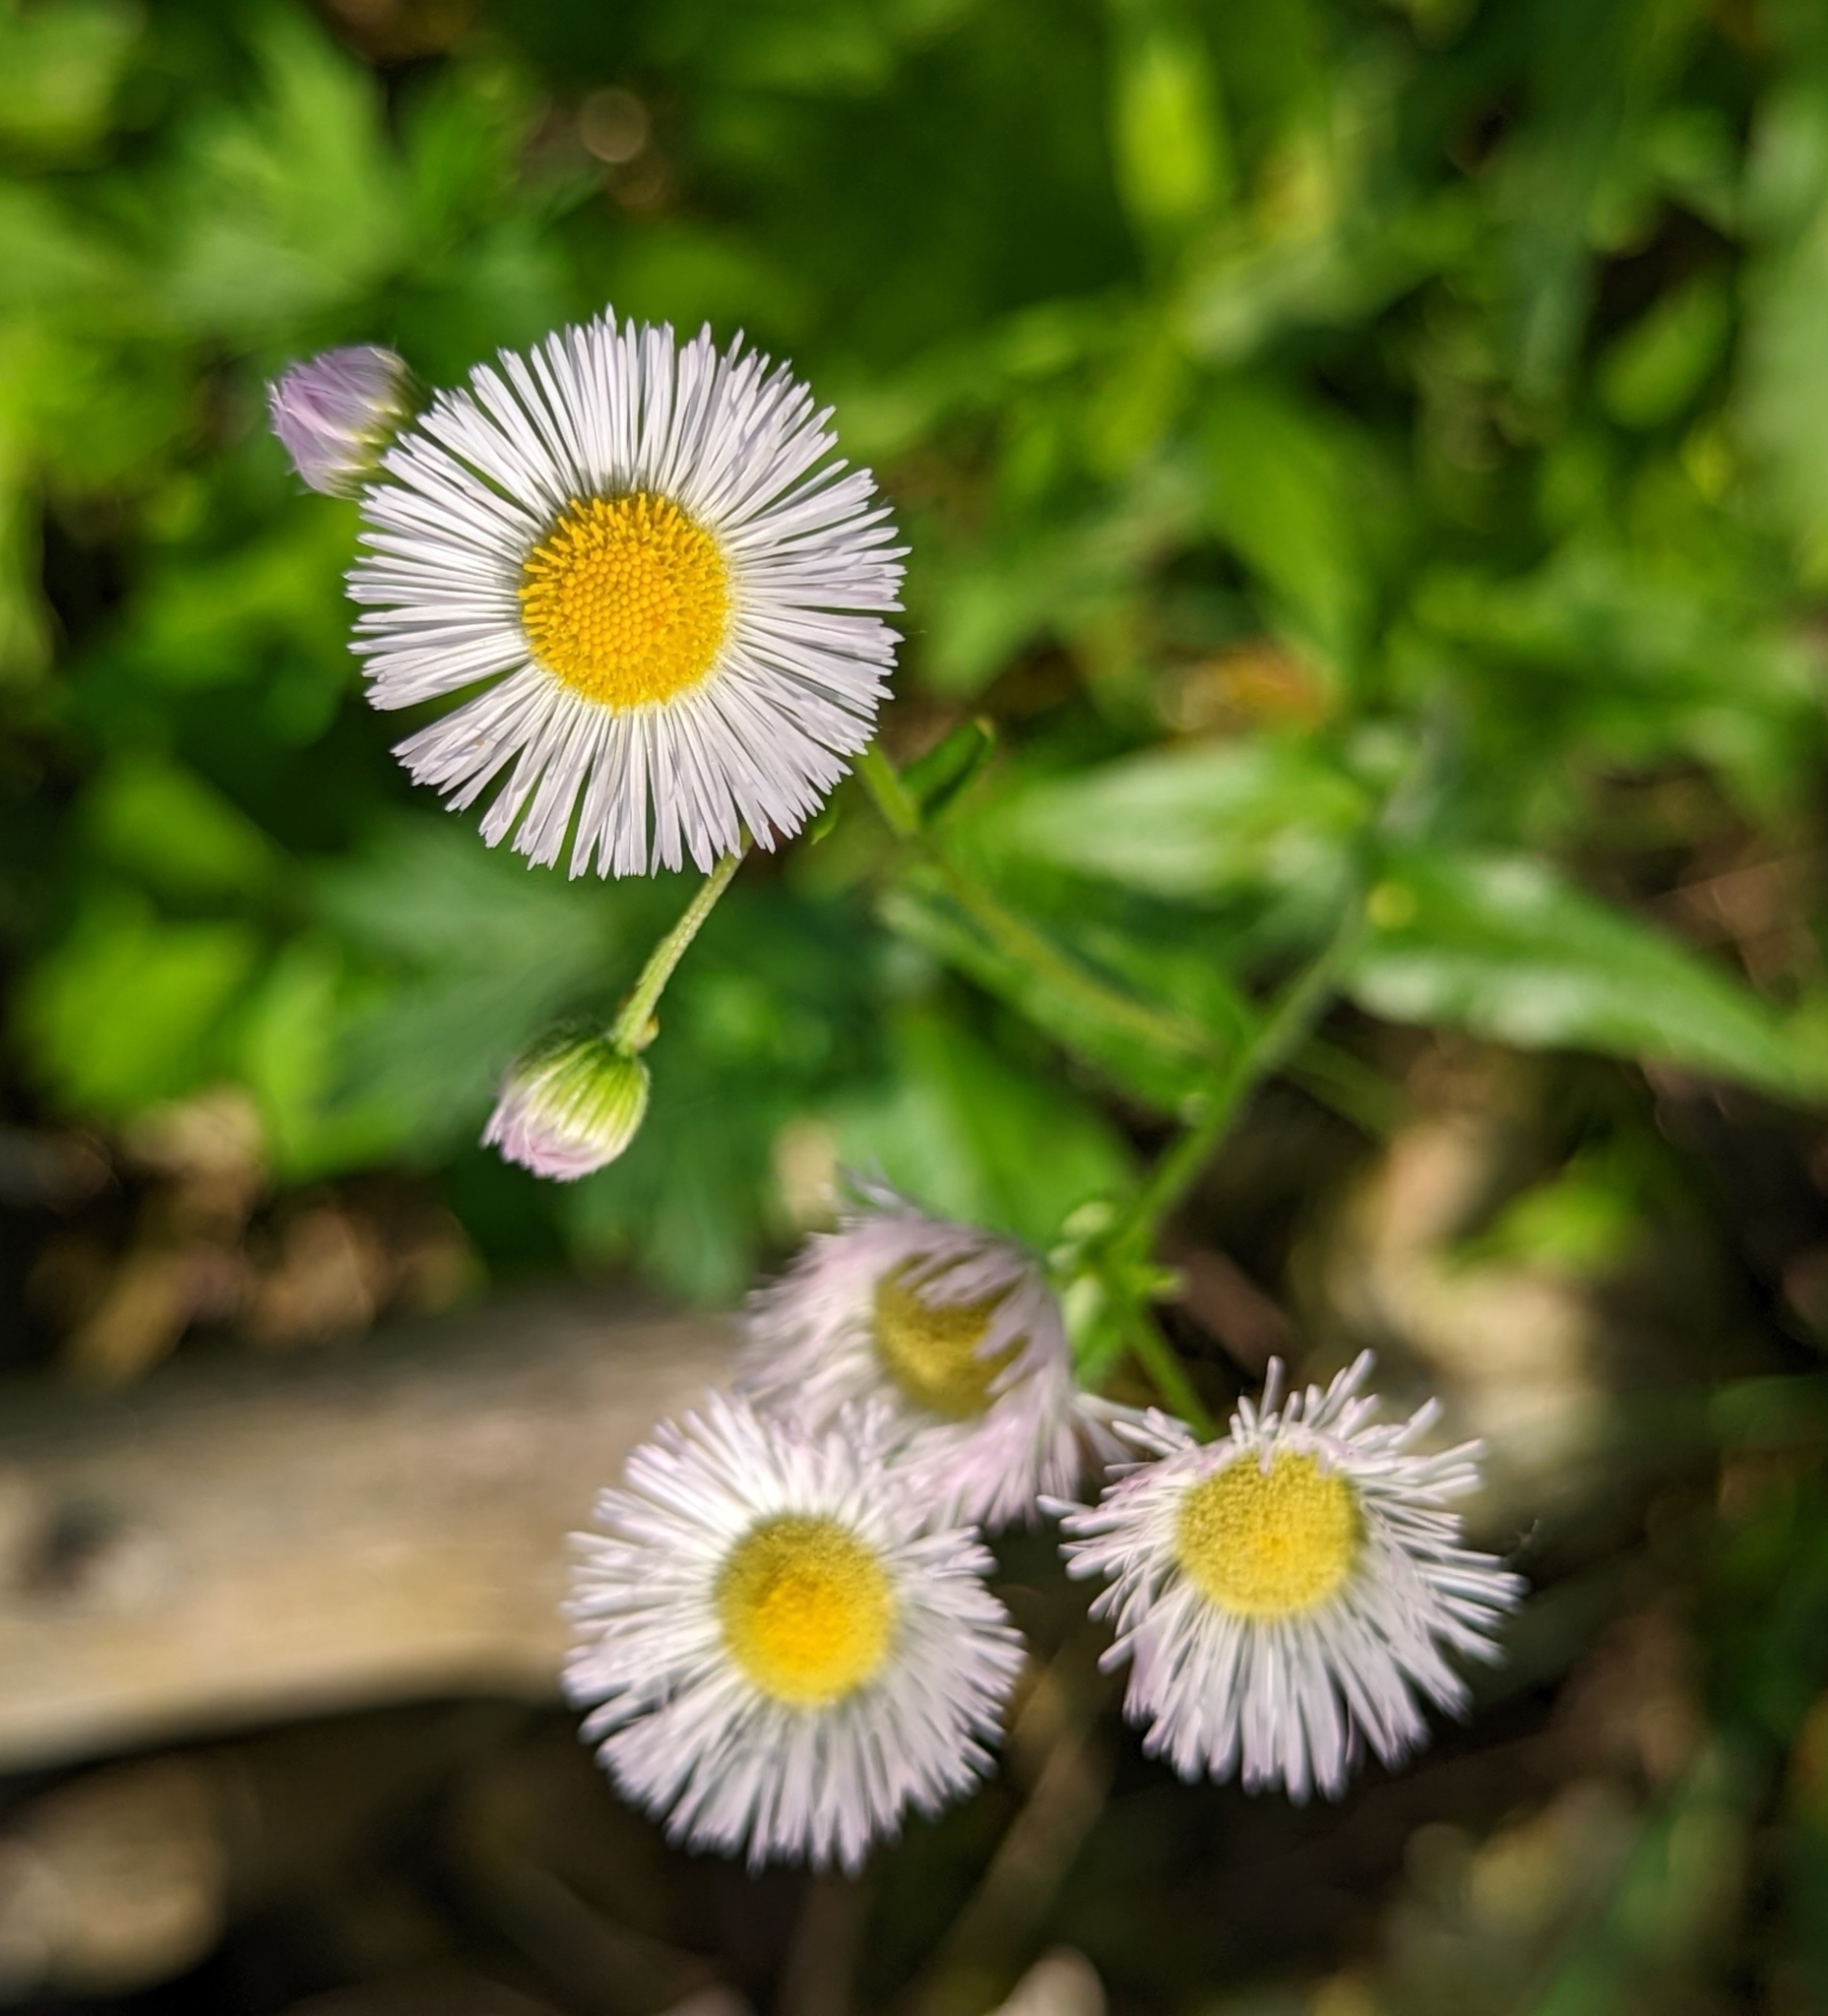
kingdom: Plantae
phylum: Tracheophyta
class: Magnoliopsida
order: Asterales
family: Asteraceae
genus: Erigeron
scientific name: Erigeron philadelphicus
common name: Robin's-plantain
